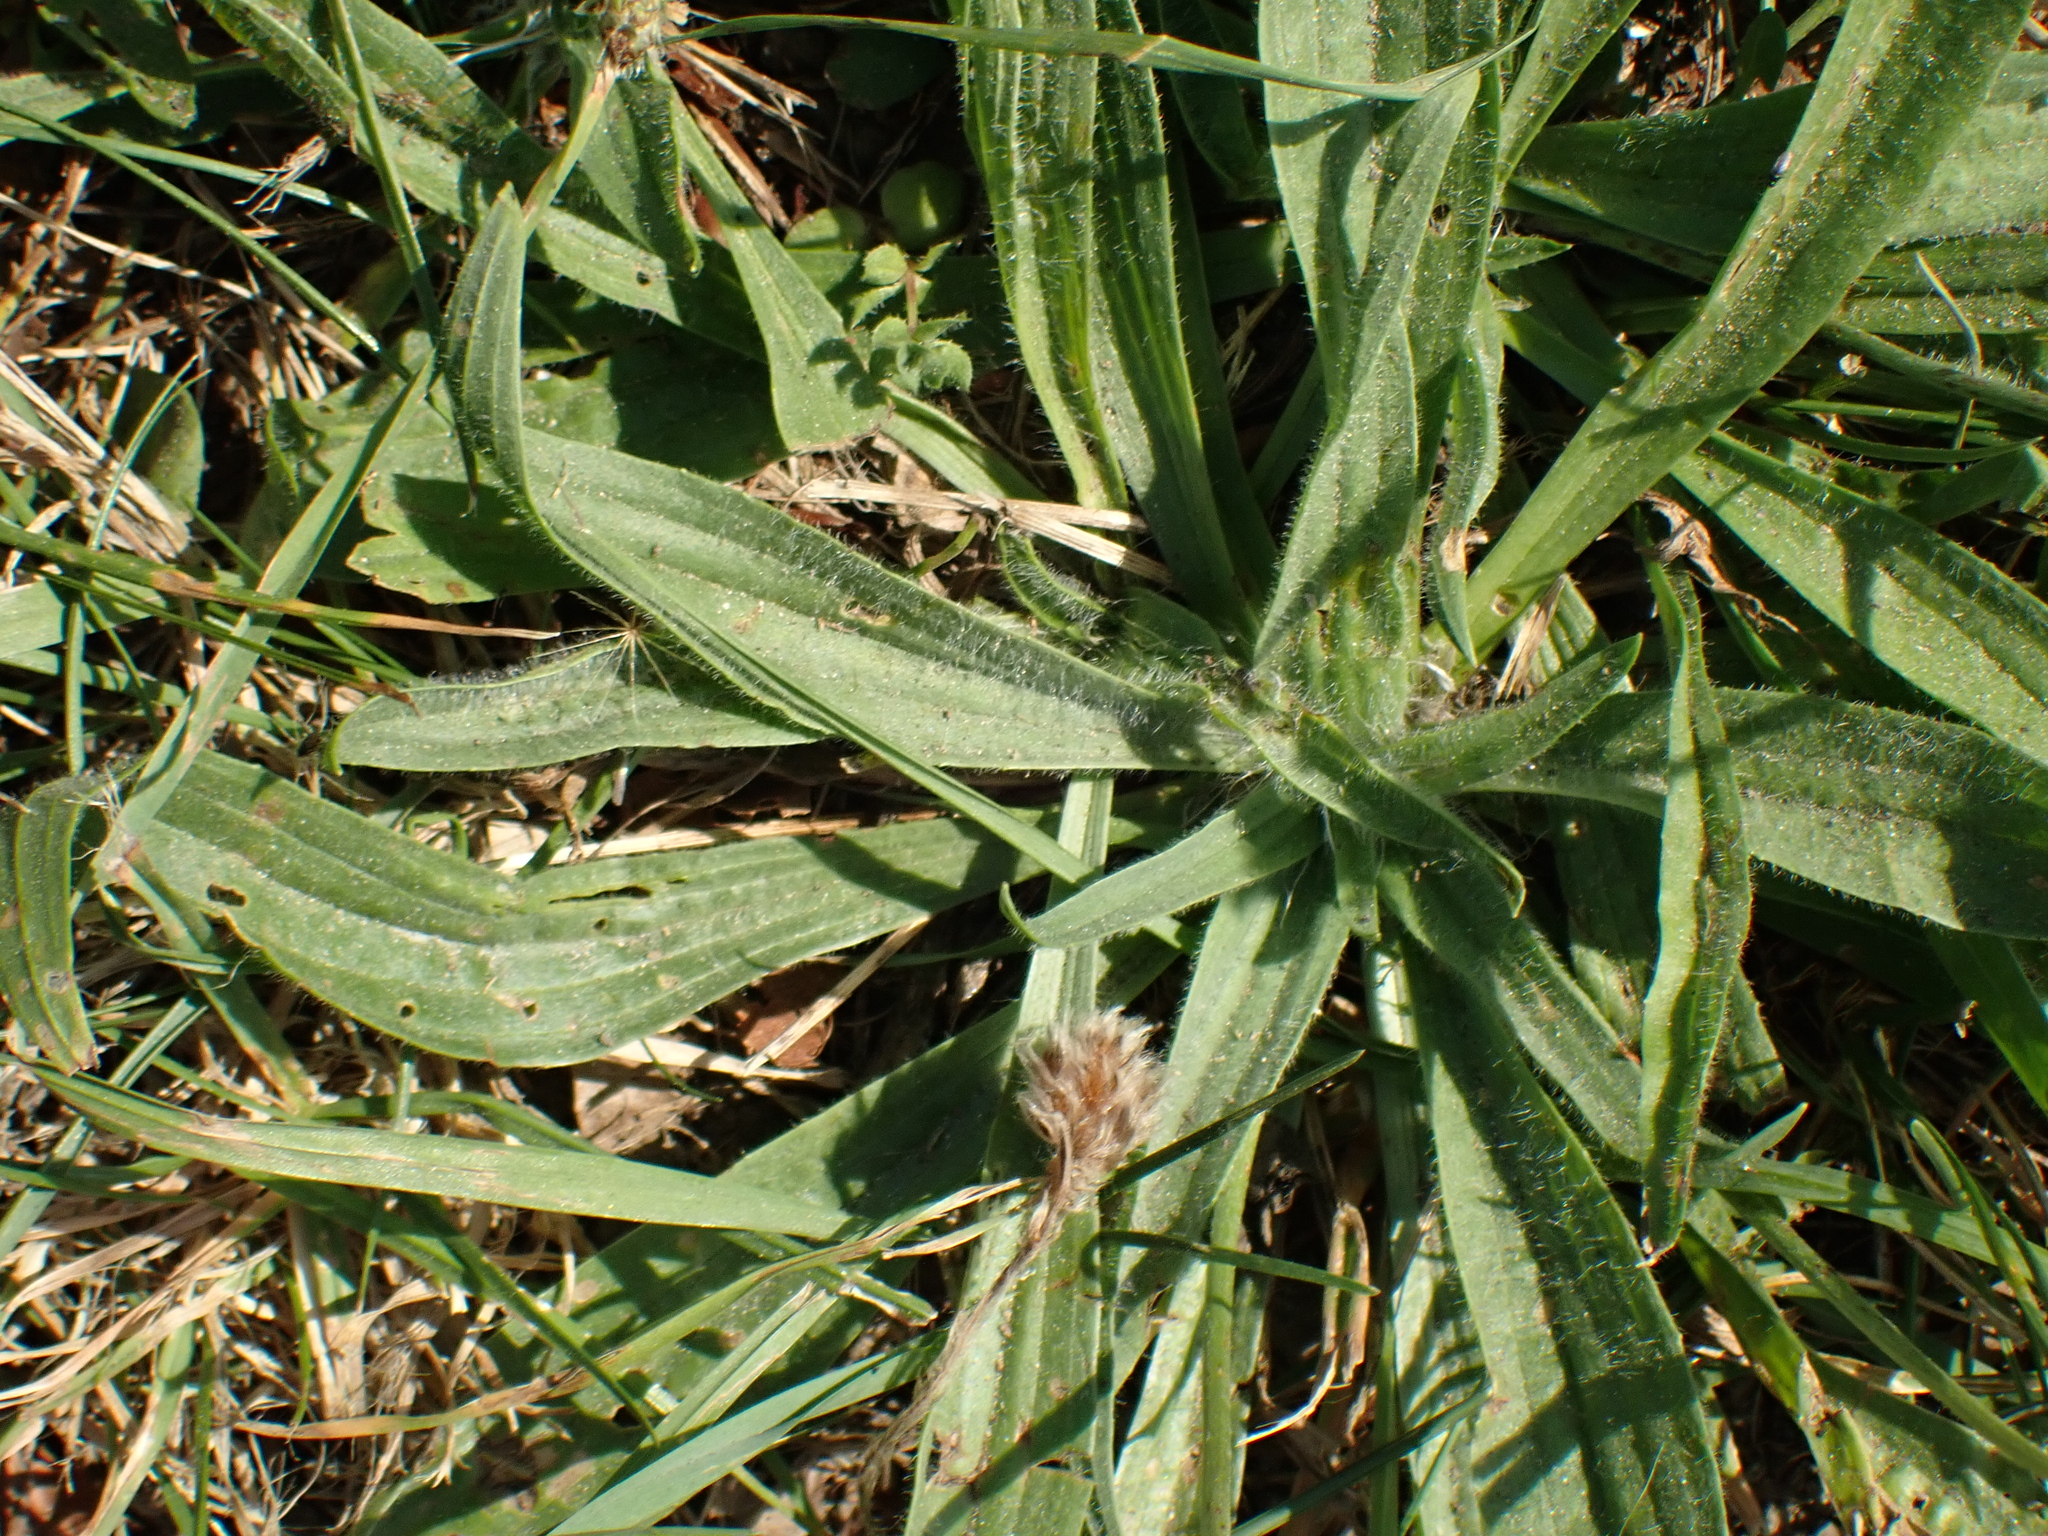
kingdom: Plantae
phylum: Tracheophyta
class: Magnoliopsida
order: Lamiales
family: Plantaginaceae
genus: Plantago
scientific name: Plantago lanceolata
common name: Ribwort plantain
